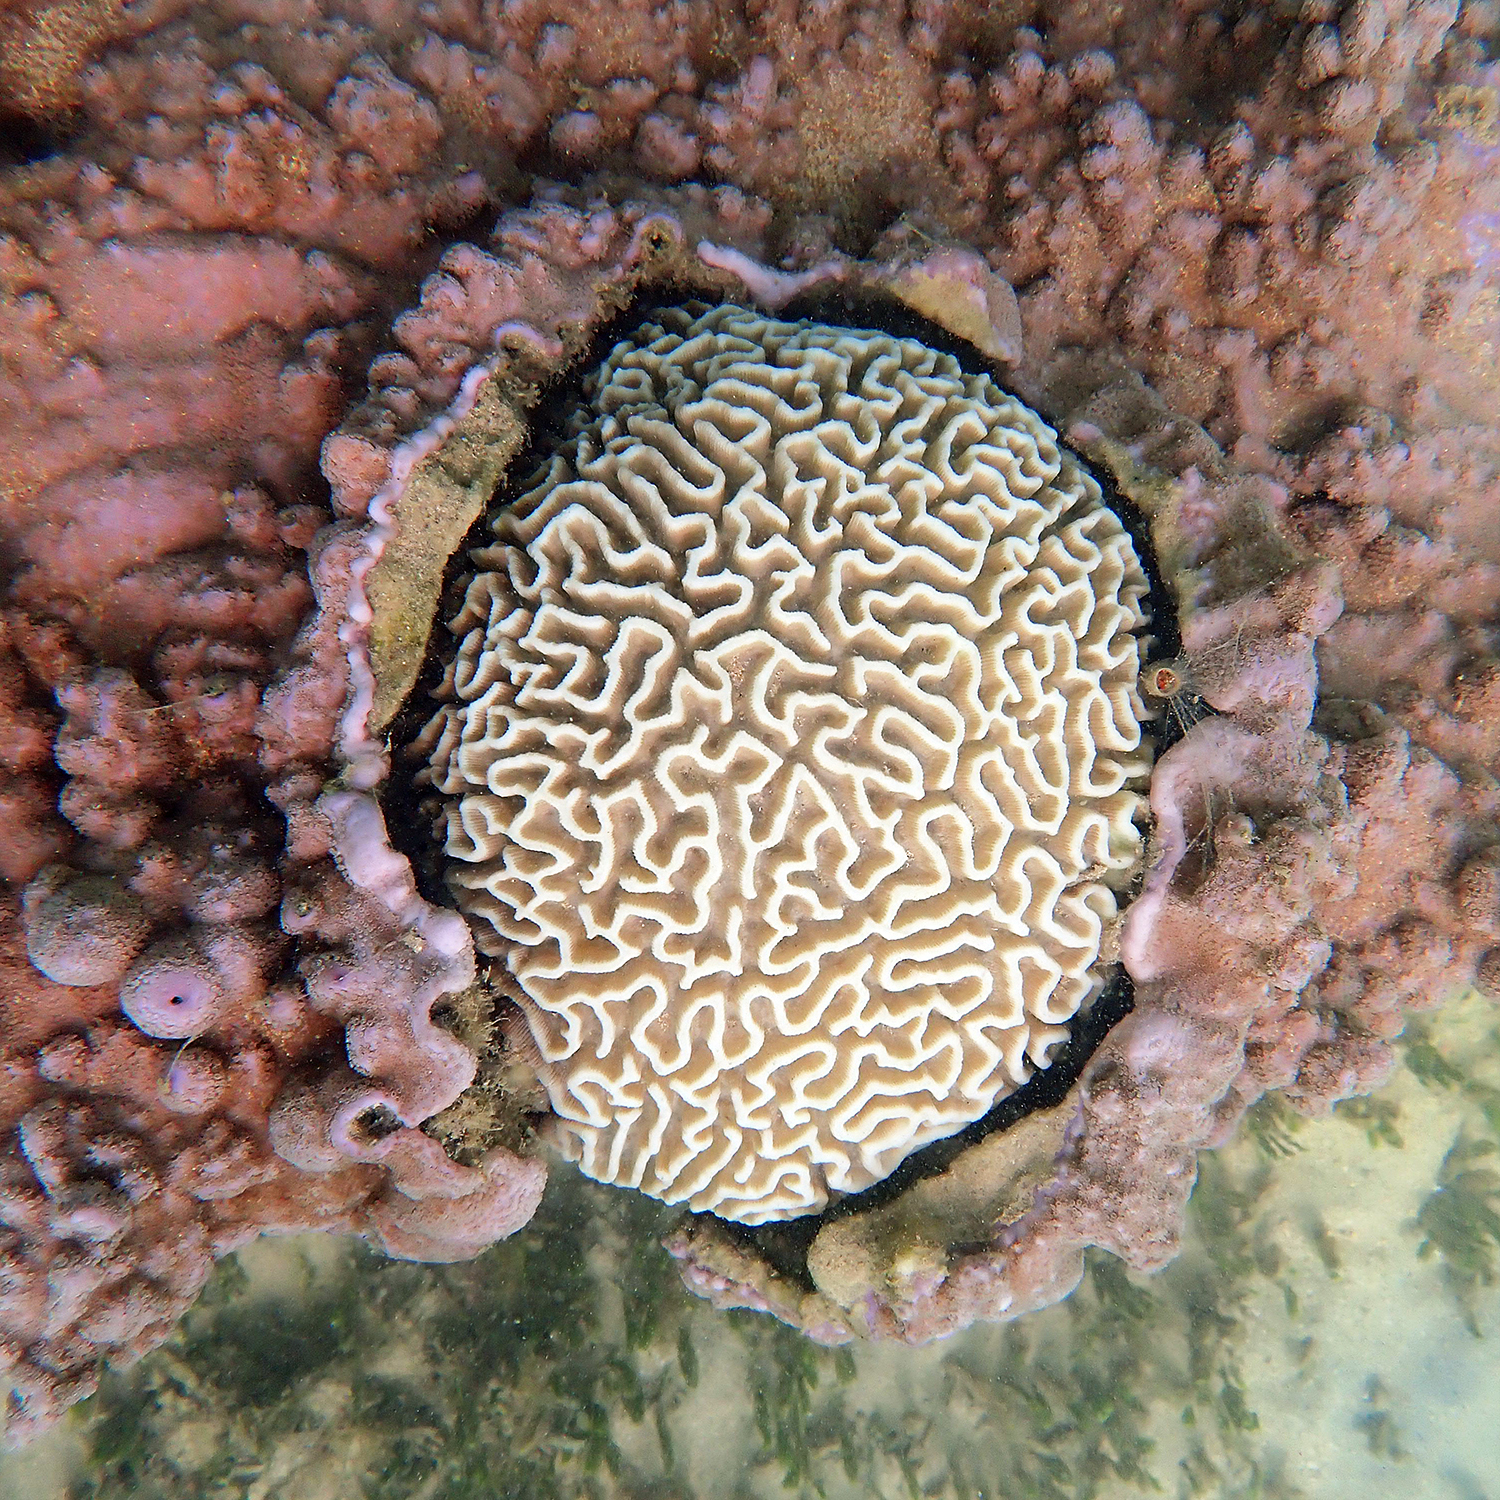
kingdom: Animalia
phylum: Cnidaria
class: Anthozoa
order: Scleractinia
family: Merulinidae
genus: Paragoniastrea
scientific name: Paragoniastrea australensis
